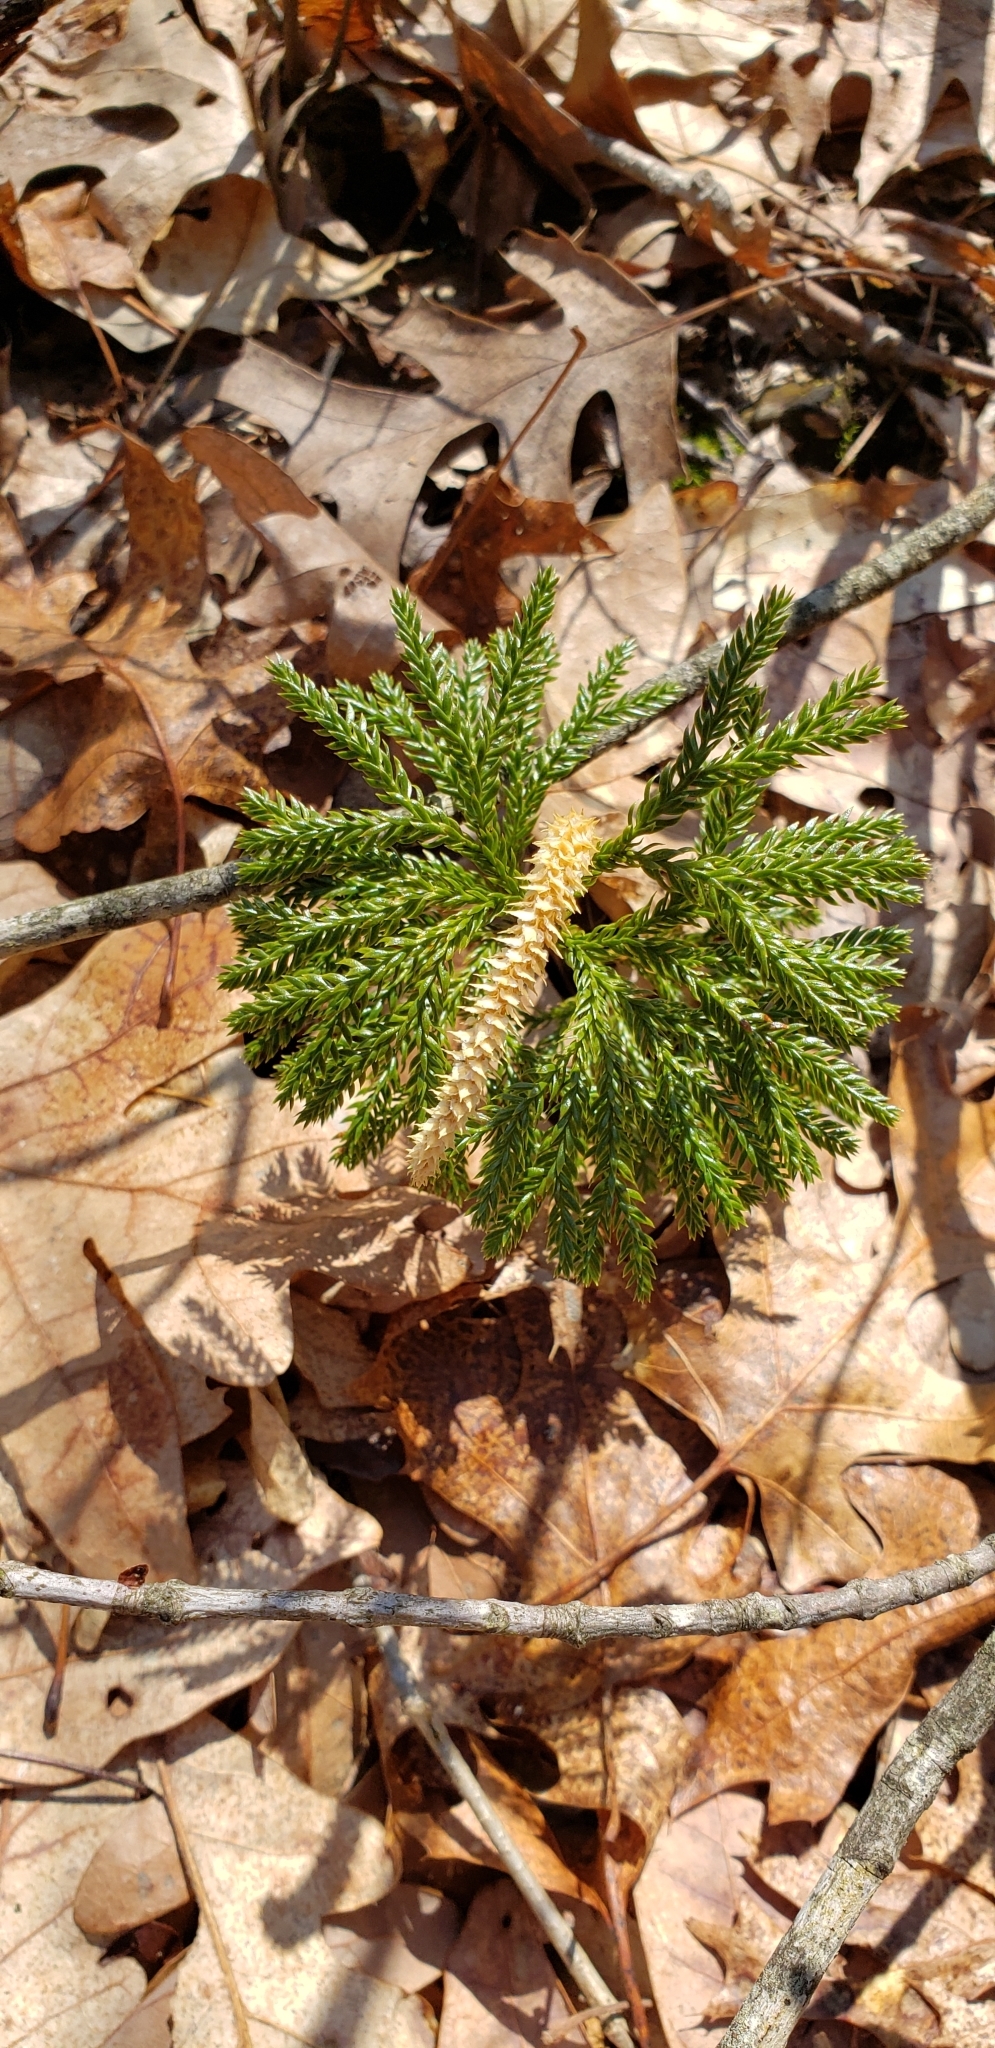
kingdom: Plantae
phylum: Tracheophyta
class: Lycopodiopsida
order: Lycopodiales
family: Lycopodiaceae
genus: Dendrolycopodium
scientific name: Dendrolycopodium obscurum
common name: Common ground-pine
